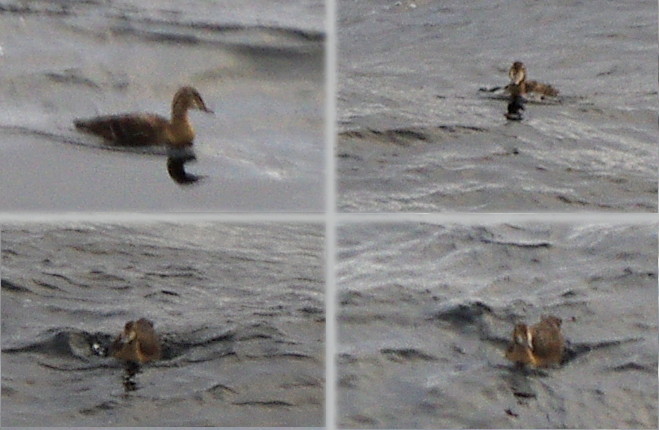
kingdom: Animalia
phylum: Chordata
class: Aves
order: Anseriformes
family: Anatidae
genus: Somateria
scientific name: Somateria spectabilis
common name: King eider
